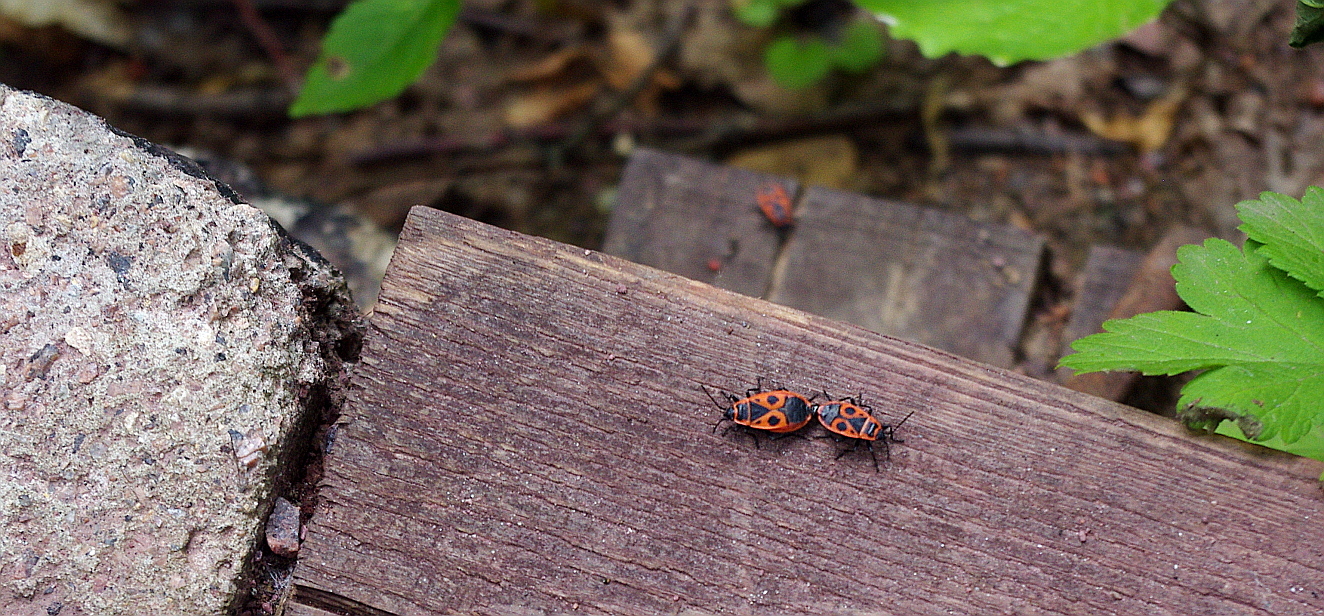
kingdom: Animalia
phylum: Arthropoda
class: Insecta
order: Hemiptera
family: Pyrrhocoridae
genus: Pyrrhocoris
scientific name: Pyrrhocoris apterus
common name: Firebug
